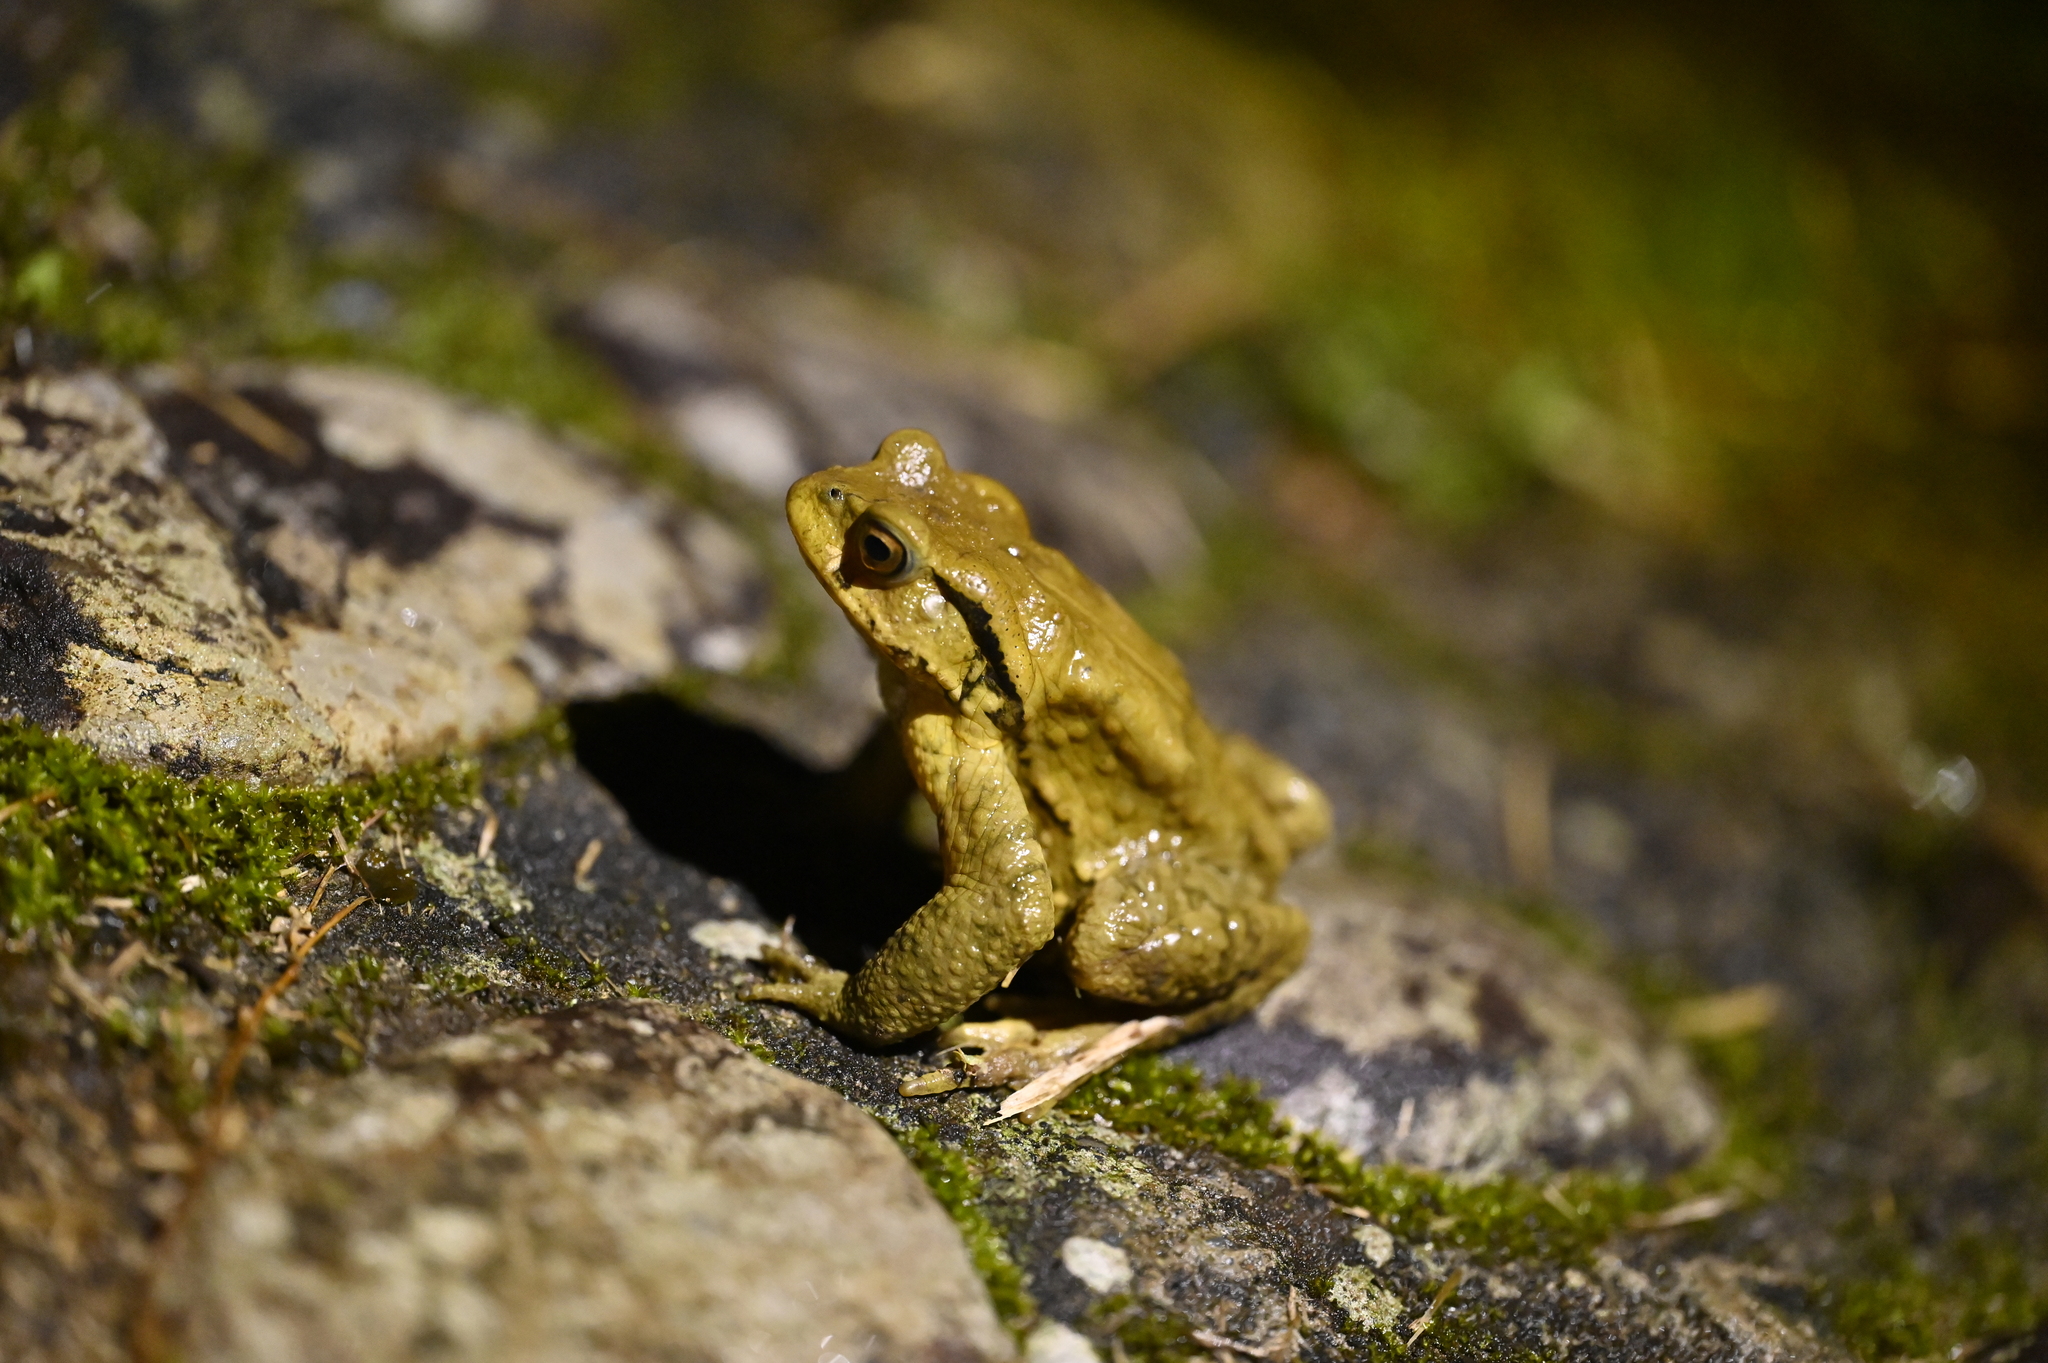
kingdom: Animalia
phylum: Chordata
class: Amphibia
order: Anura
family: Bufonidae
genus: Bufo
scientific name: Bufo bankorensis
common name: Bankor toad
